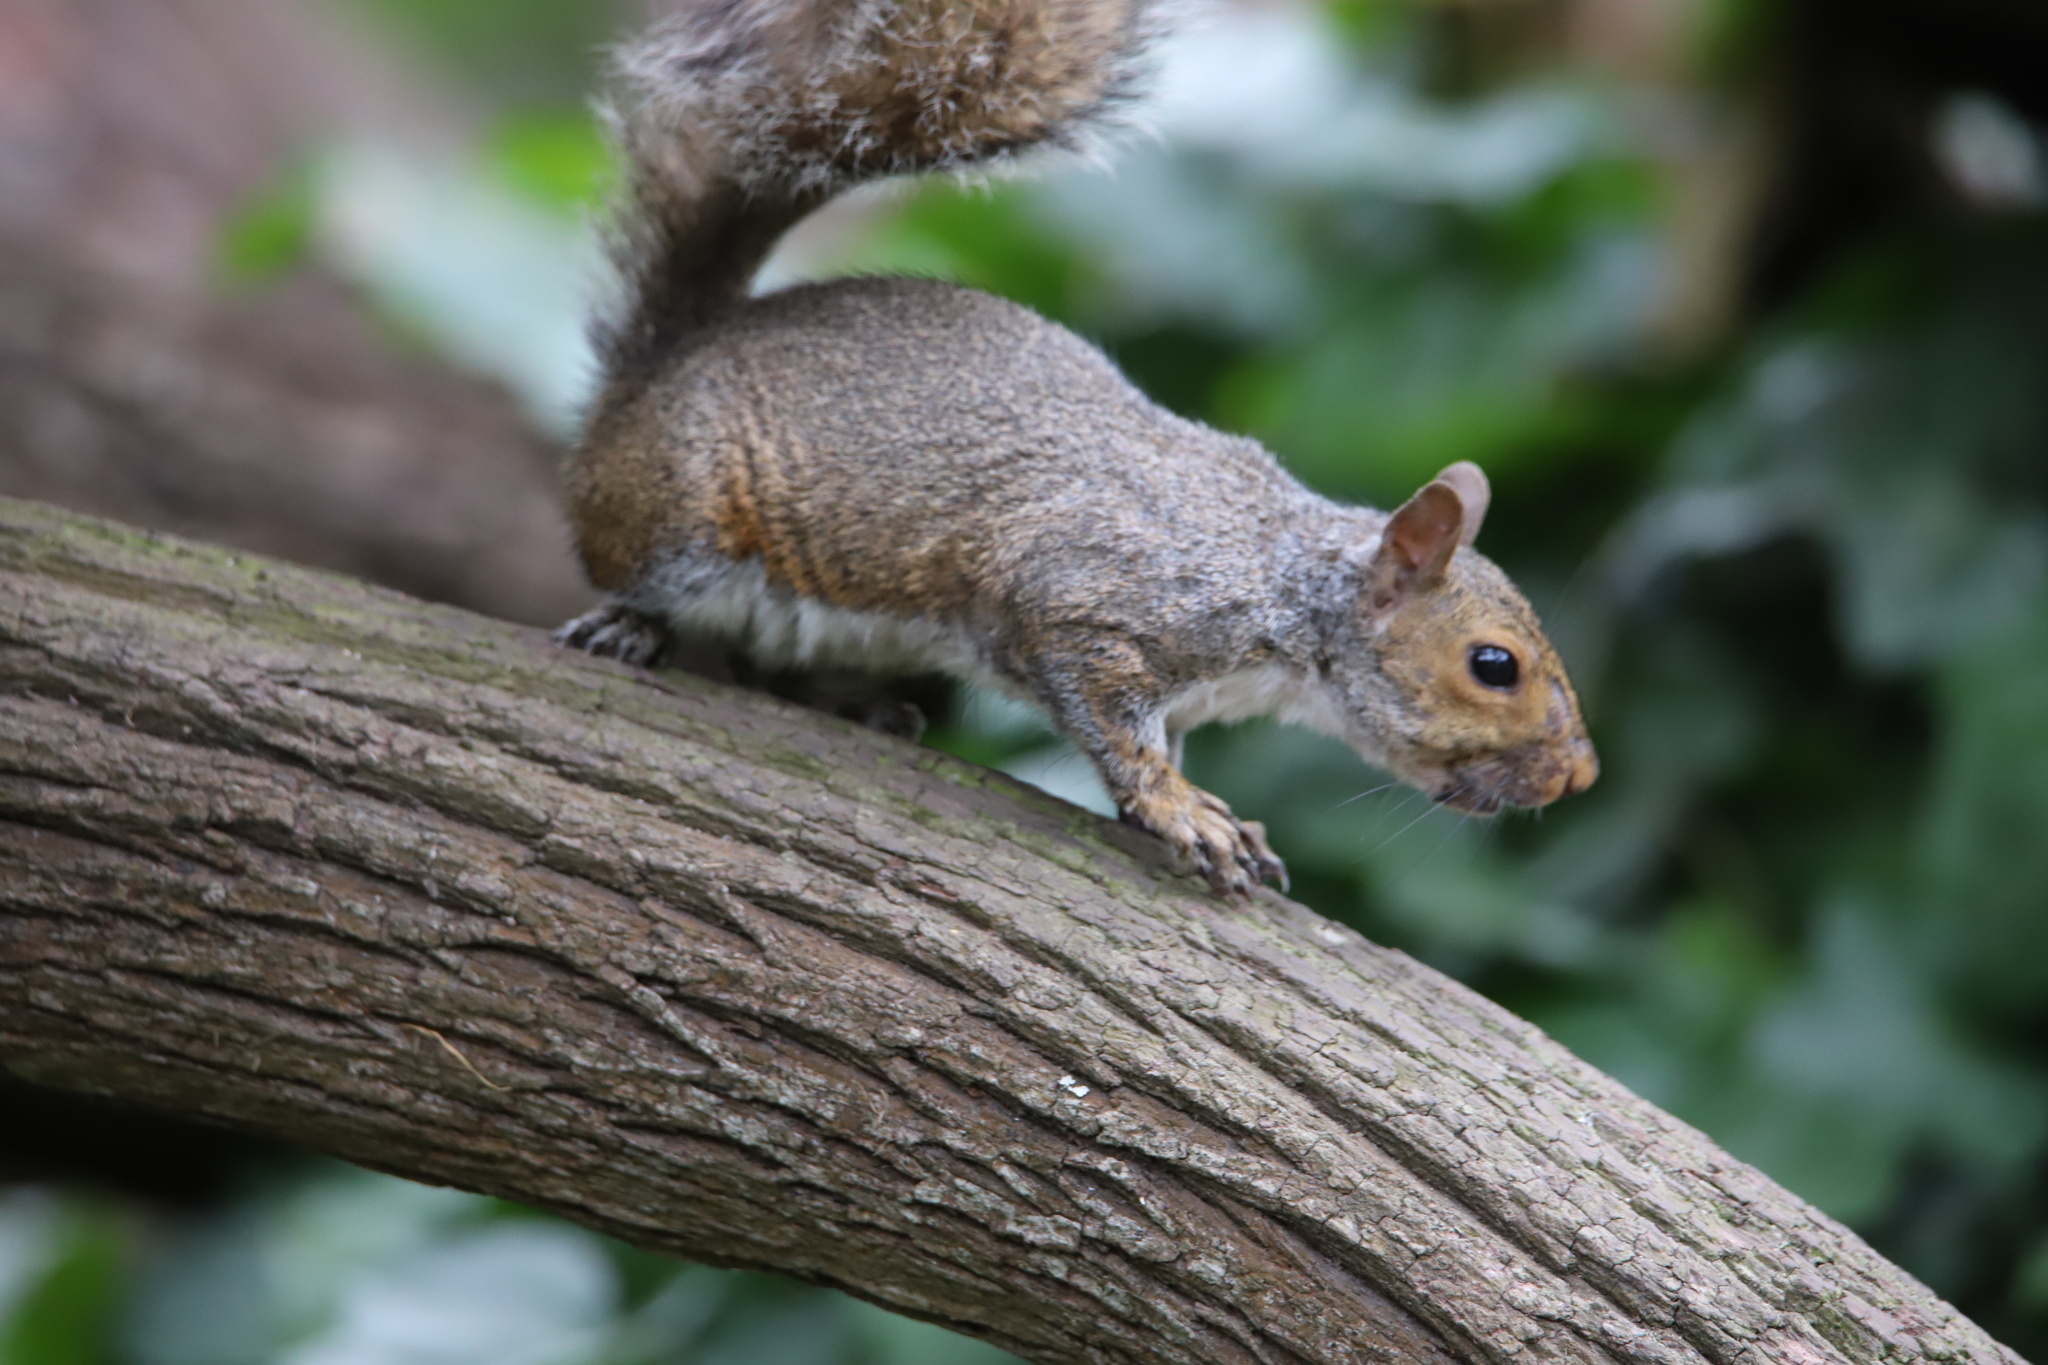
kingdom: Animalia
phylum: Chordata
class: Mammalia
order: Rodentia
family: Sciuridae
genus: Sciurus
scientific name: Sciurus carolinensis
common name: Eastern gray squirrel
